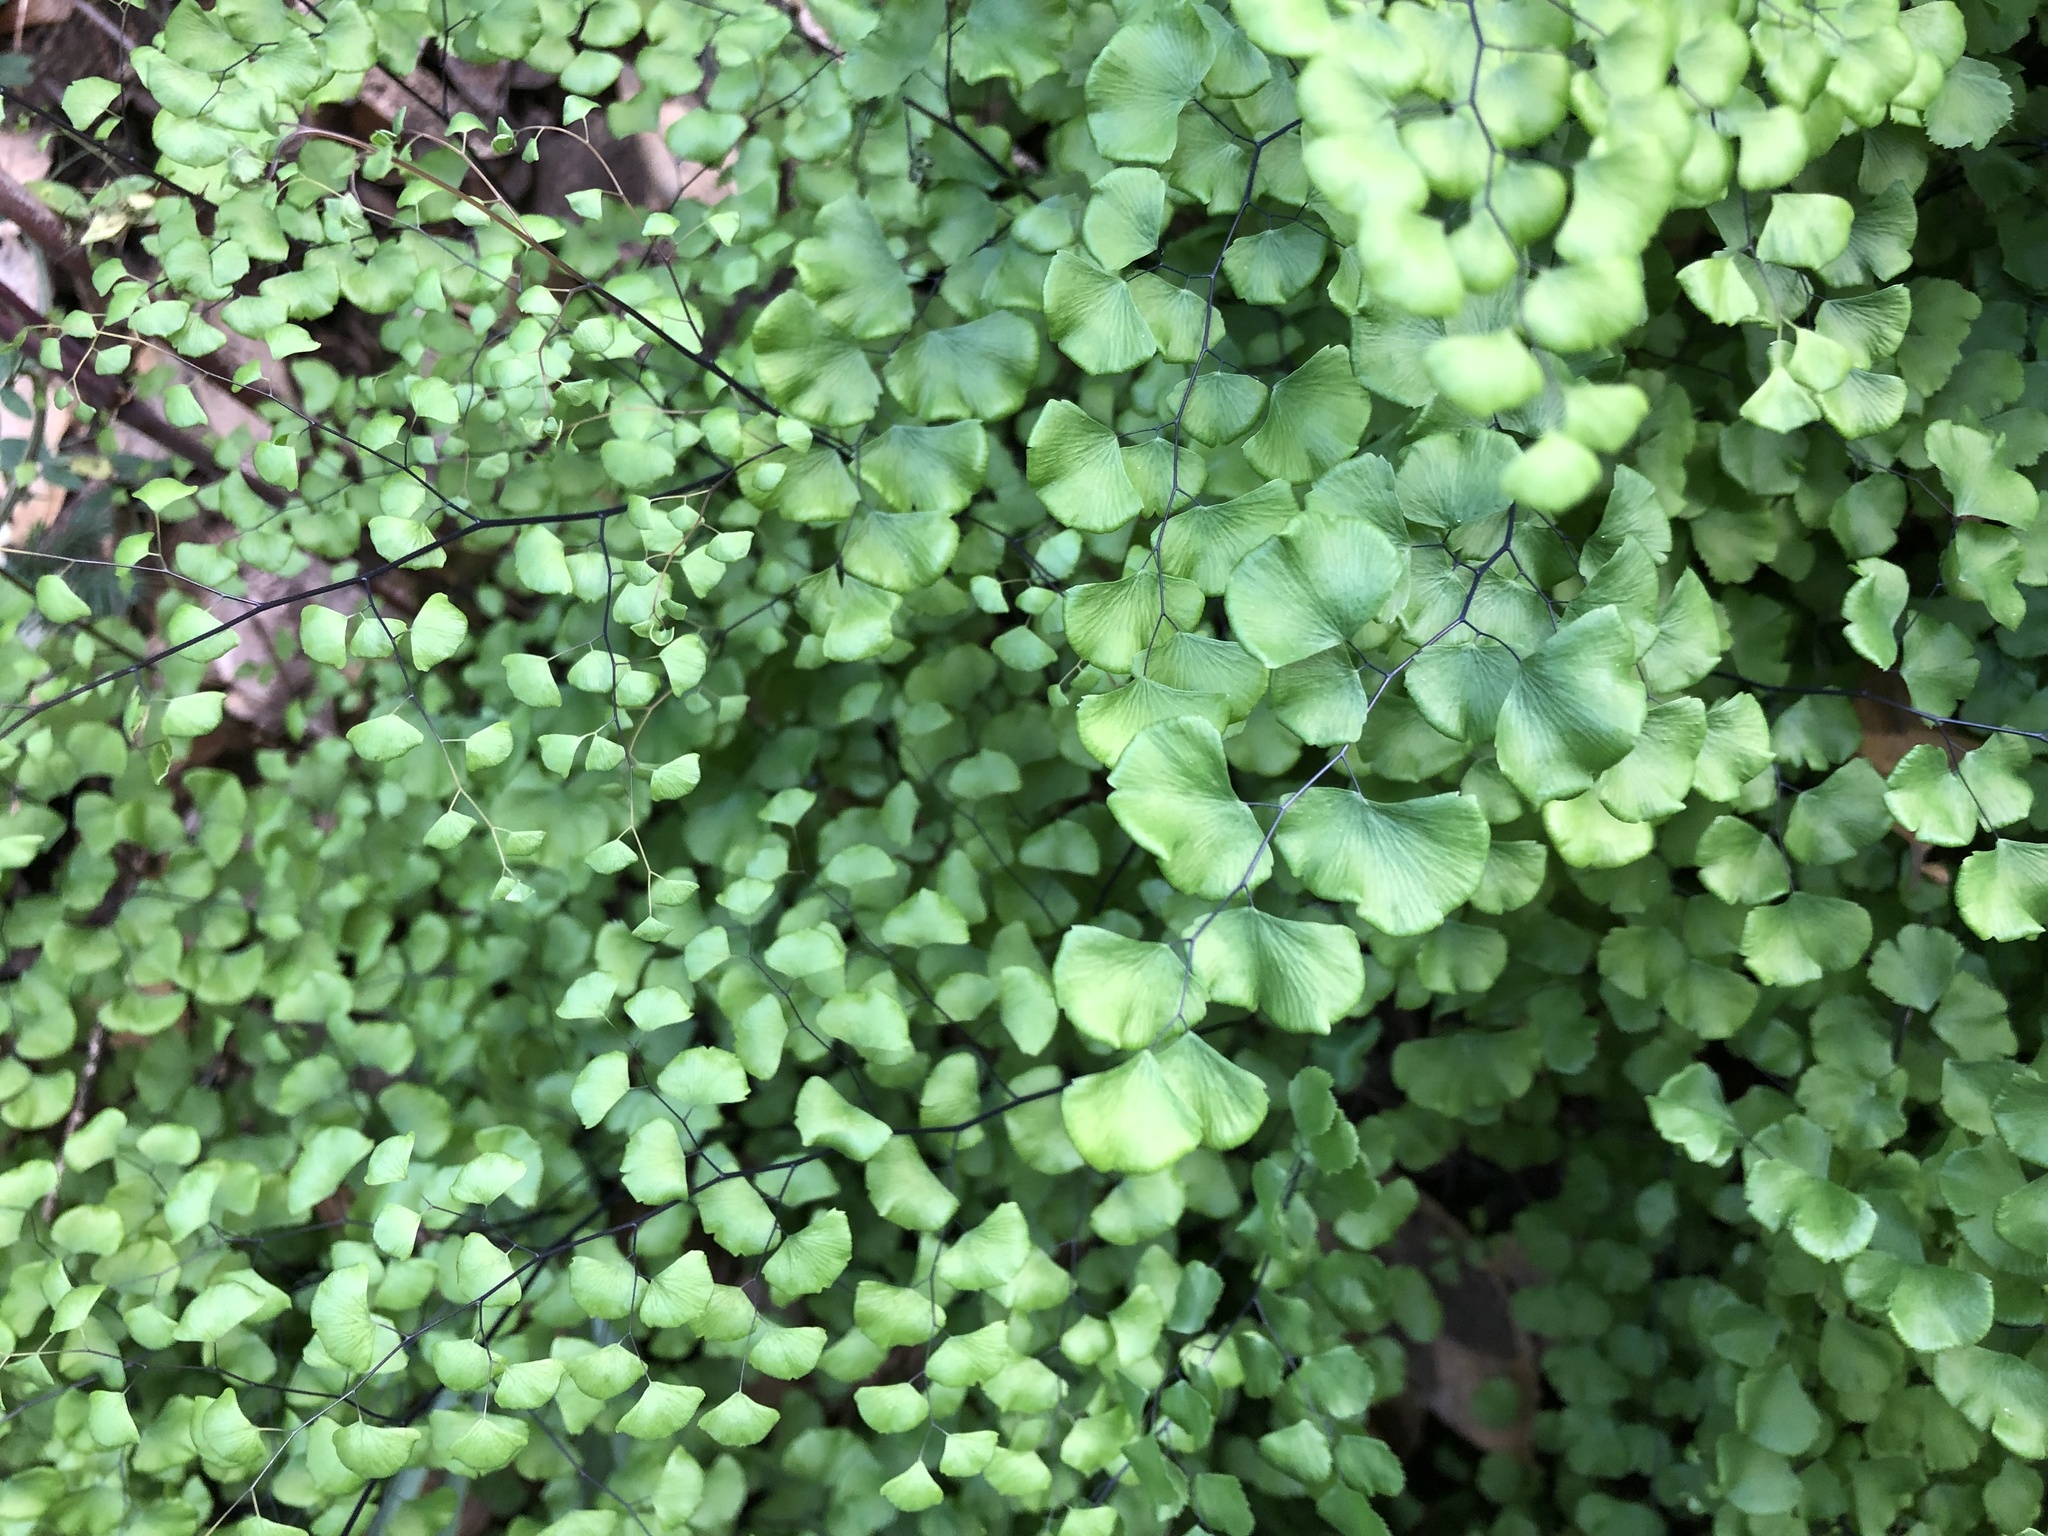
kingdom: Plantae
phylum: Tracheophyta
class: Polypodiopsida
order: Polypodiales
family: Pteridaceae
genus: Adiantum
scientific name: Adiantum jordanii
